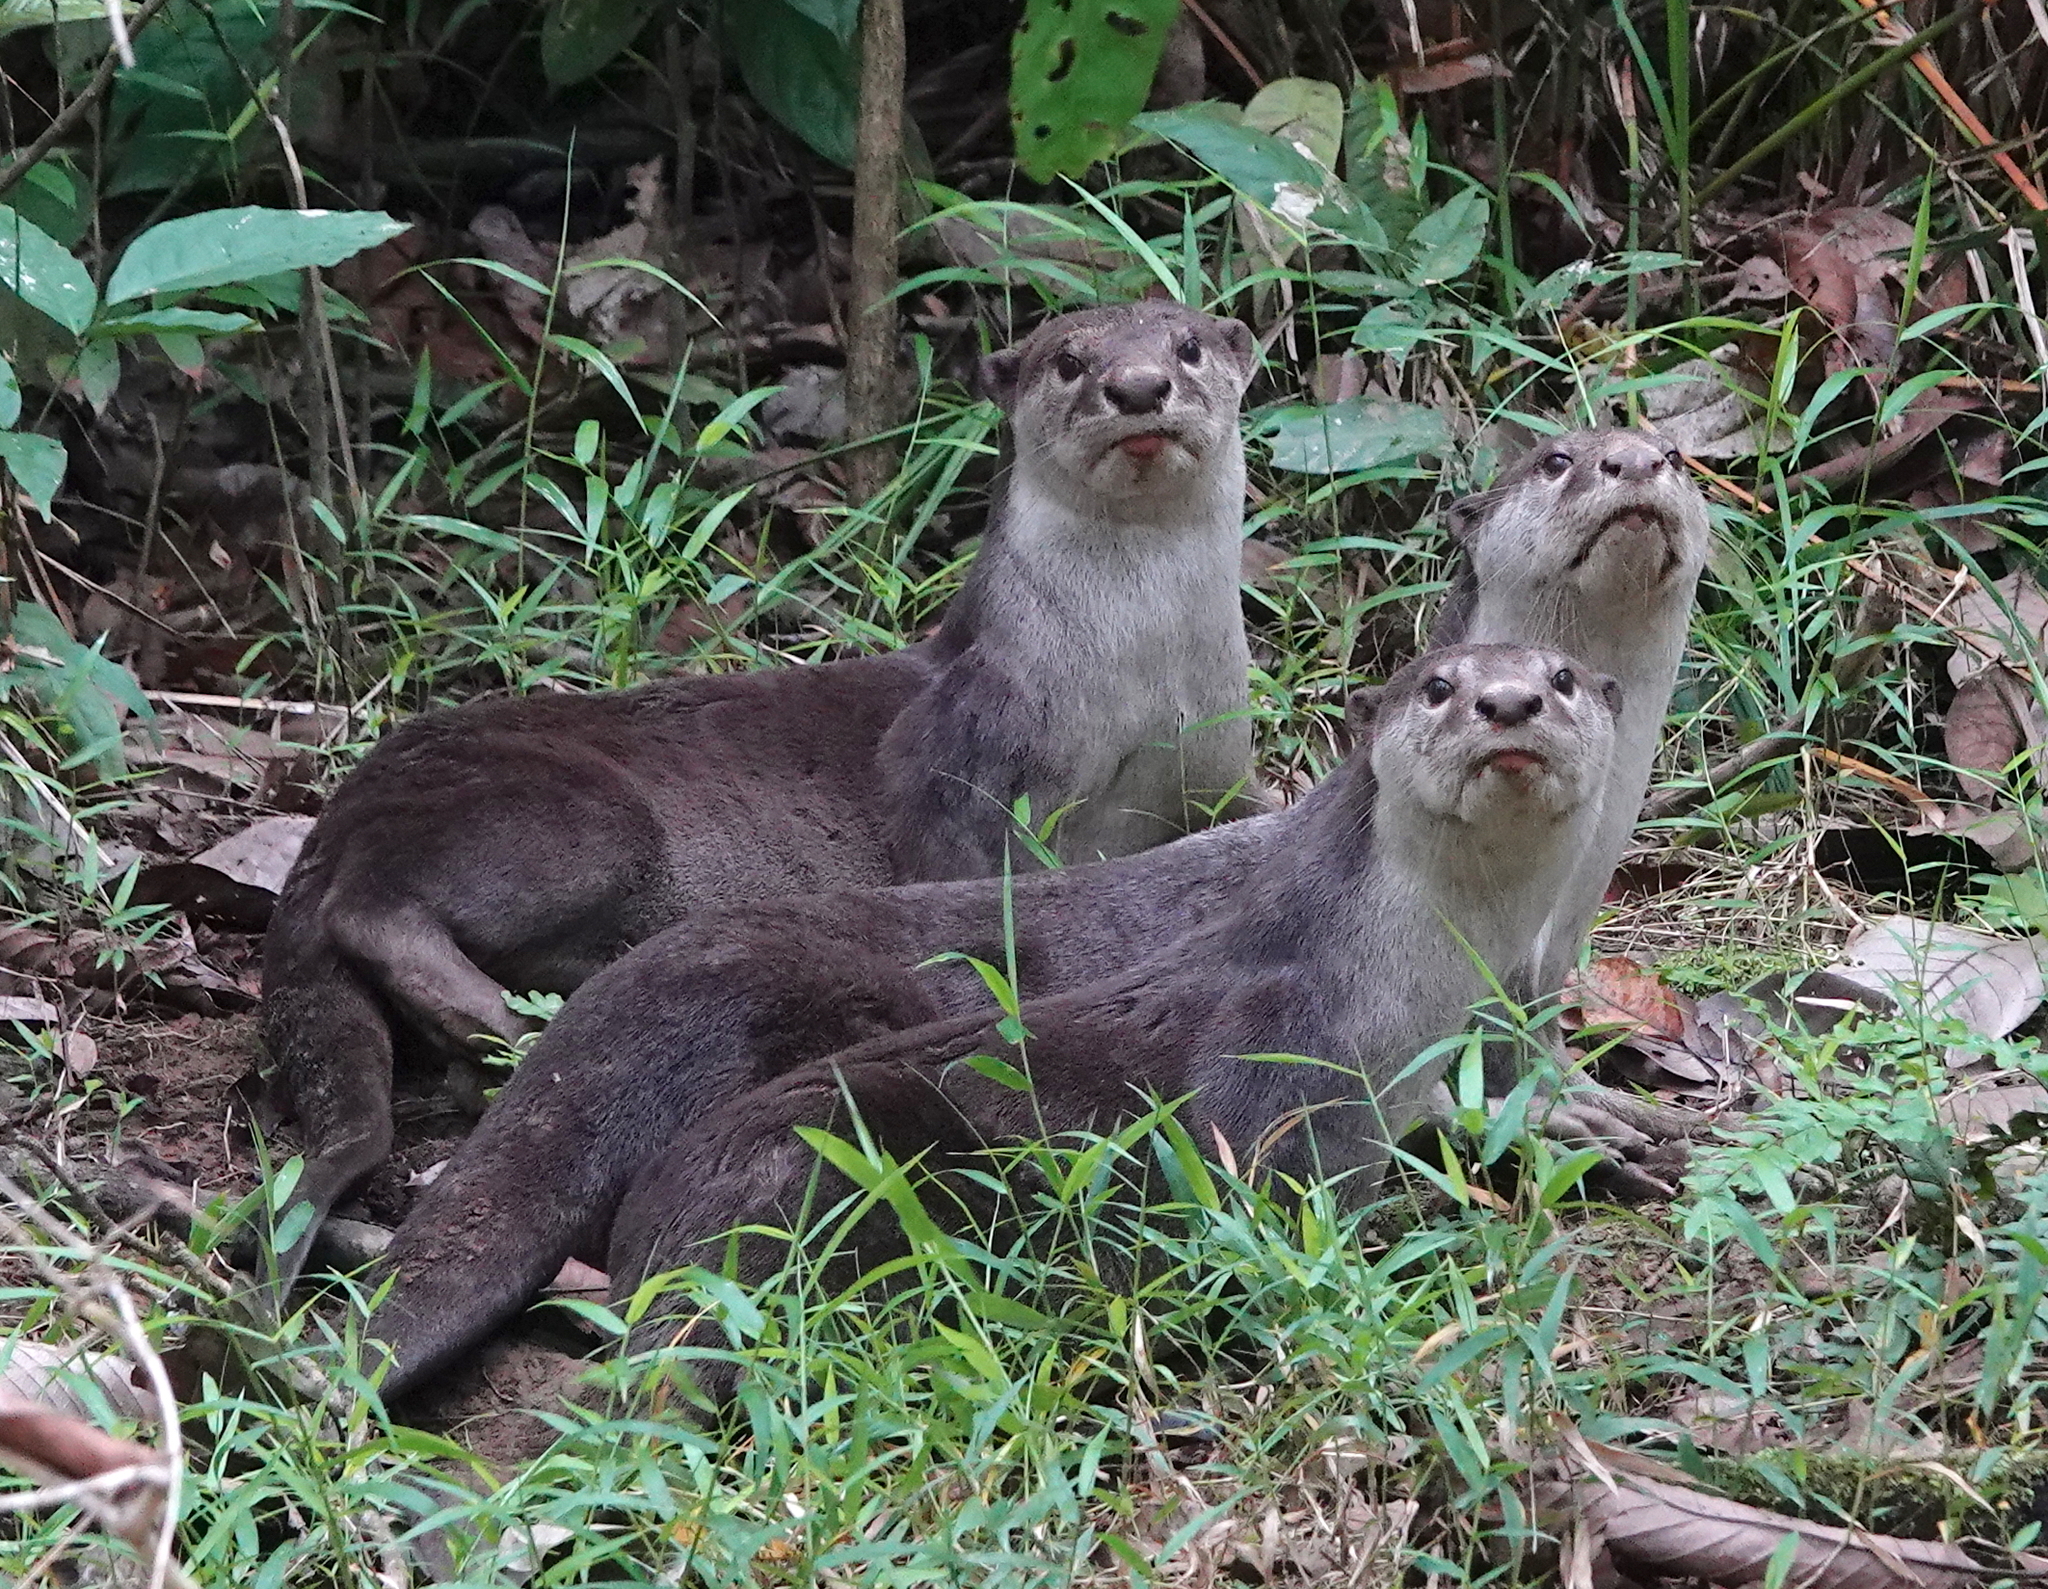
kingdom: Animalia
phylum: Chordata
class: Mammalia
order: Carnivora
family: Mustelidae
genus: Lutrogale
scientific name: Lutrogale perspicillata
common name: Smooth-coated otter
